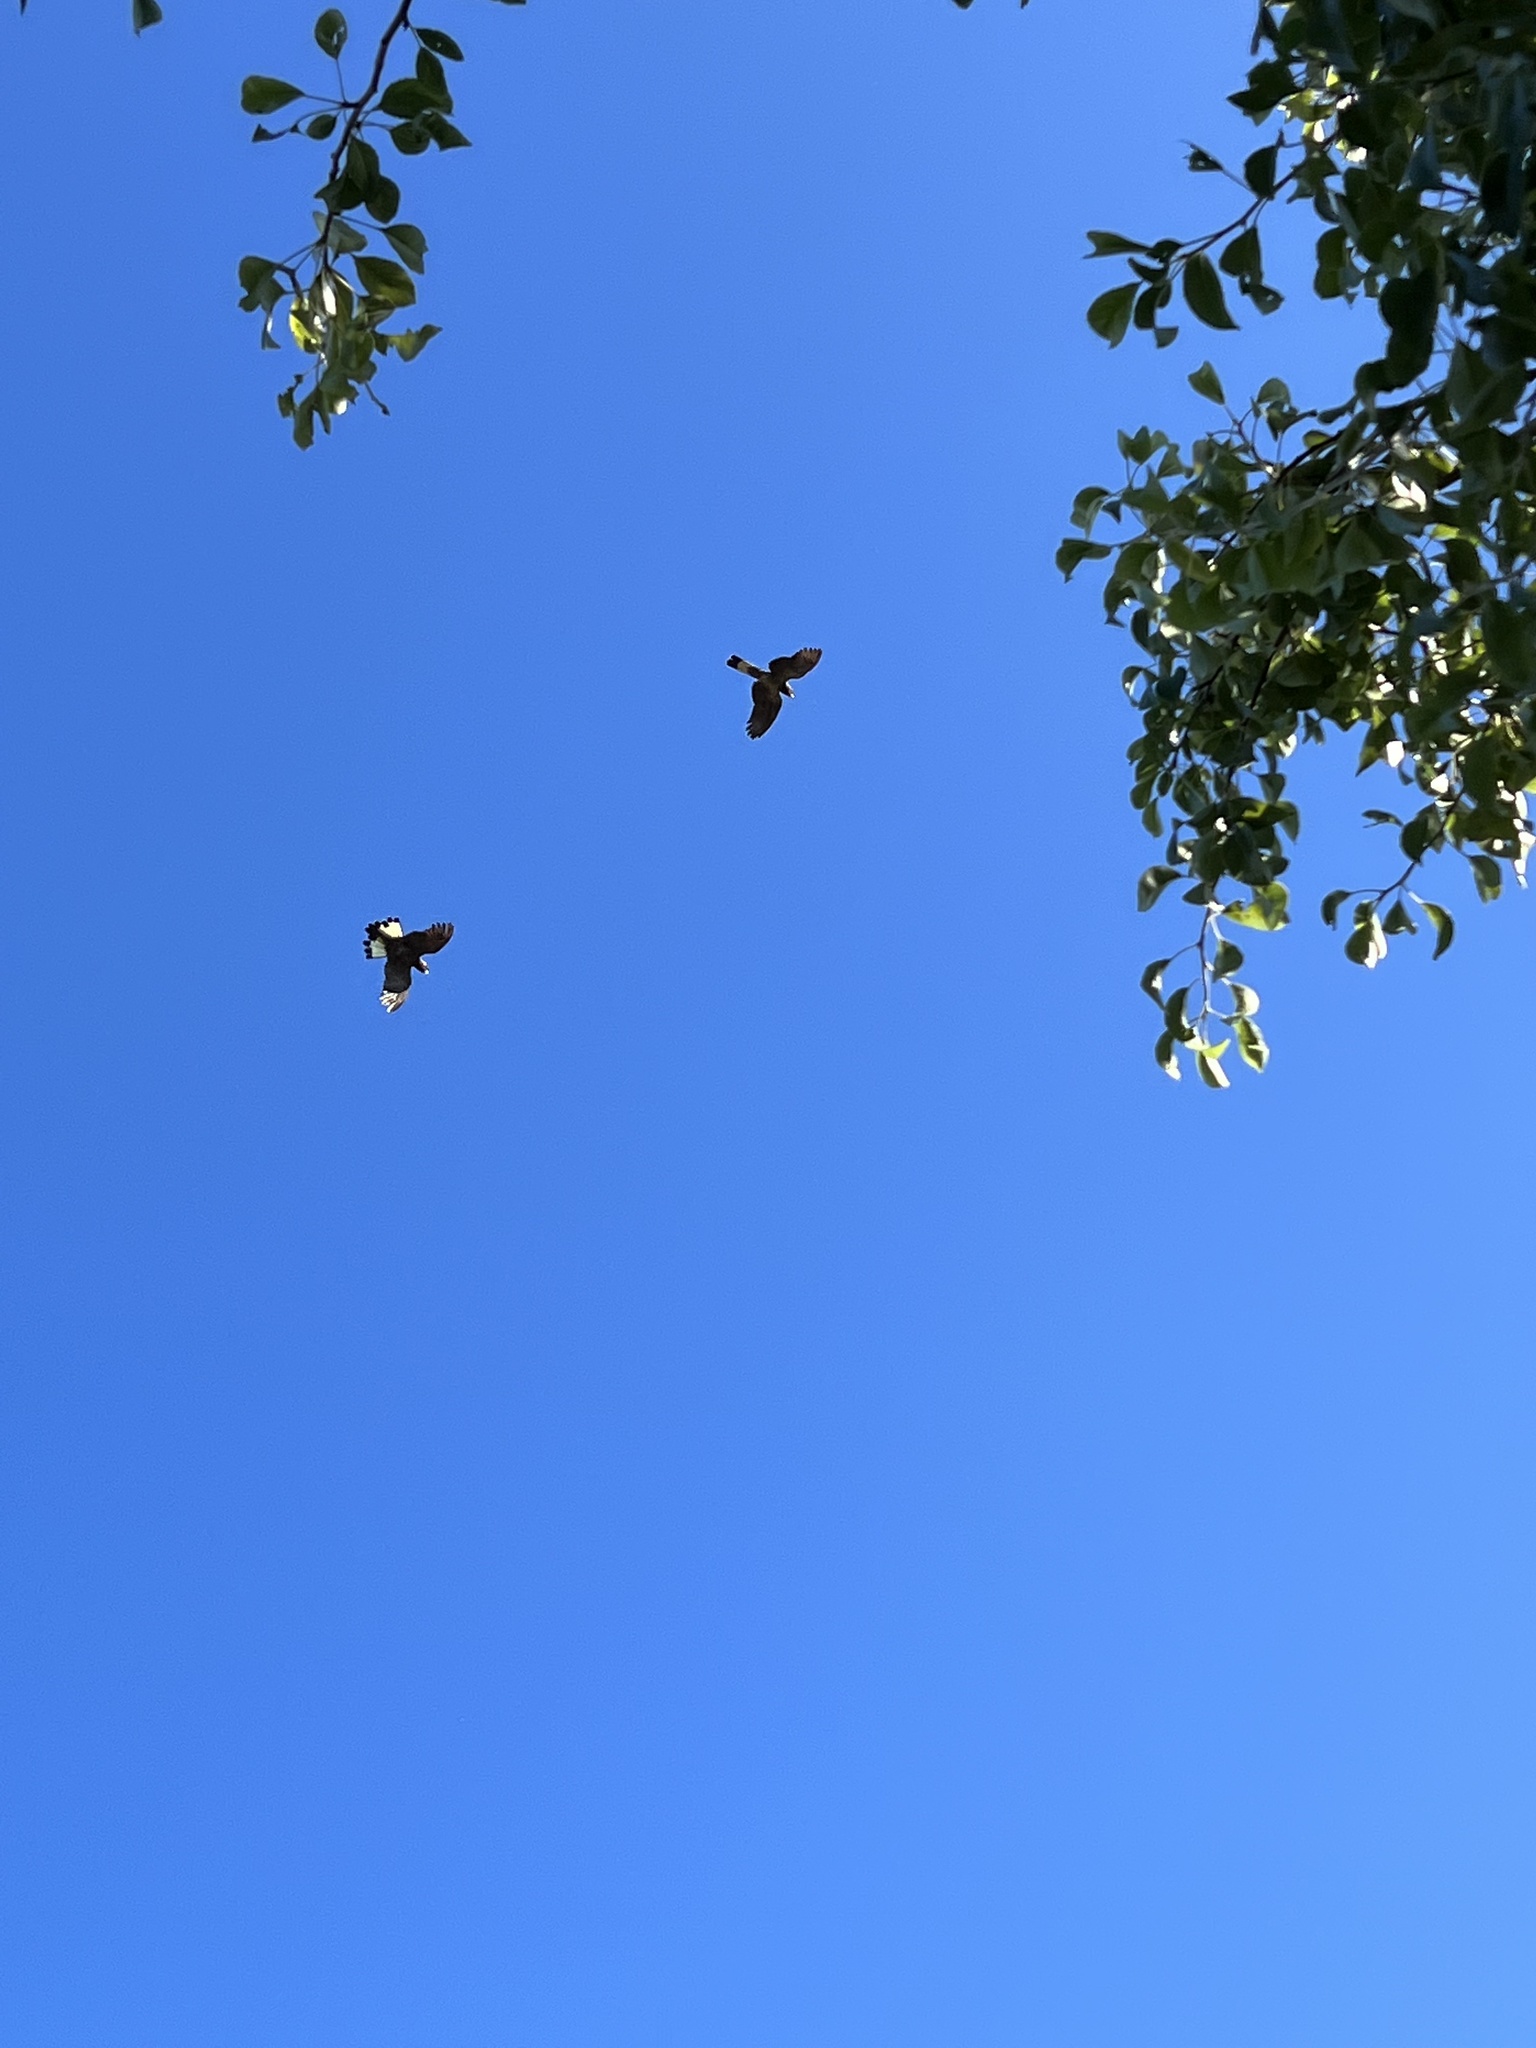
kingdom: Animalia
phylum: Chordata
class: Aves
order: Psittaciformes
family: Cacatuidae
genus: Zanda
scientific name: Zanda funerea
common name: Yellow-tailed black-cockatoo
